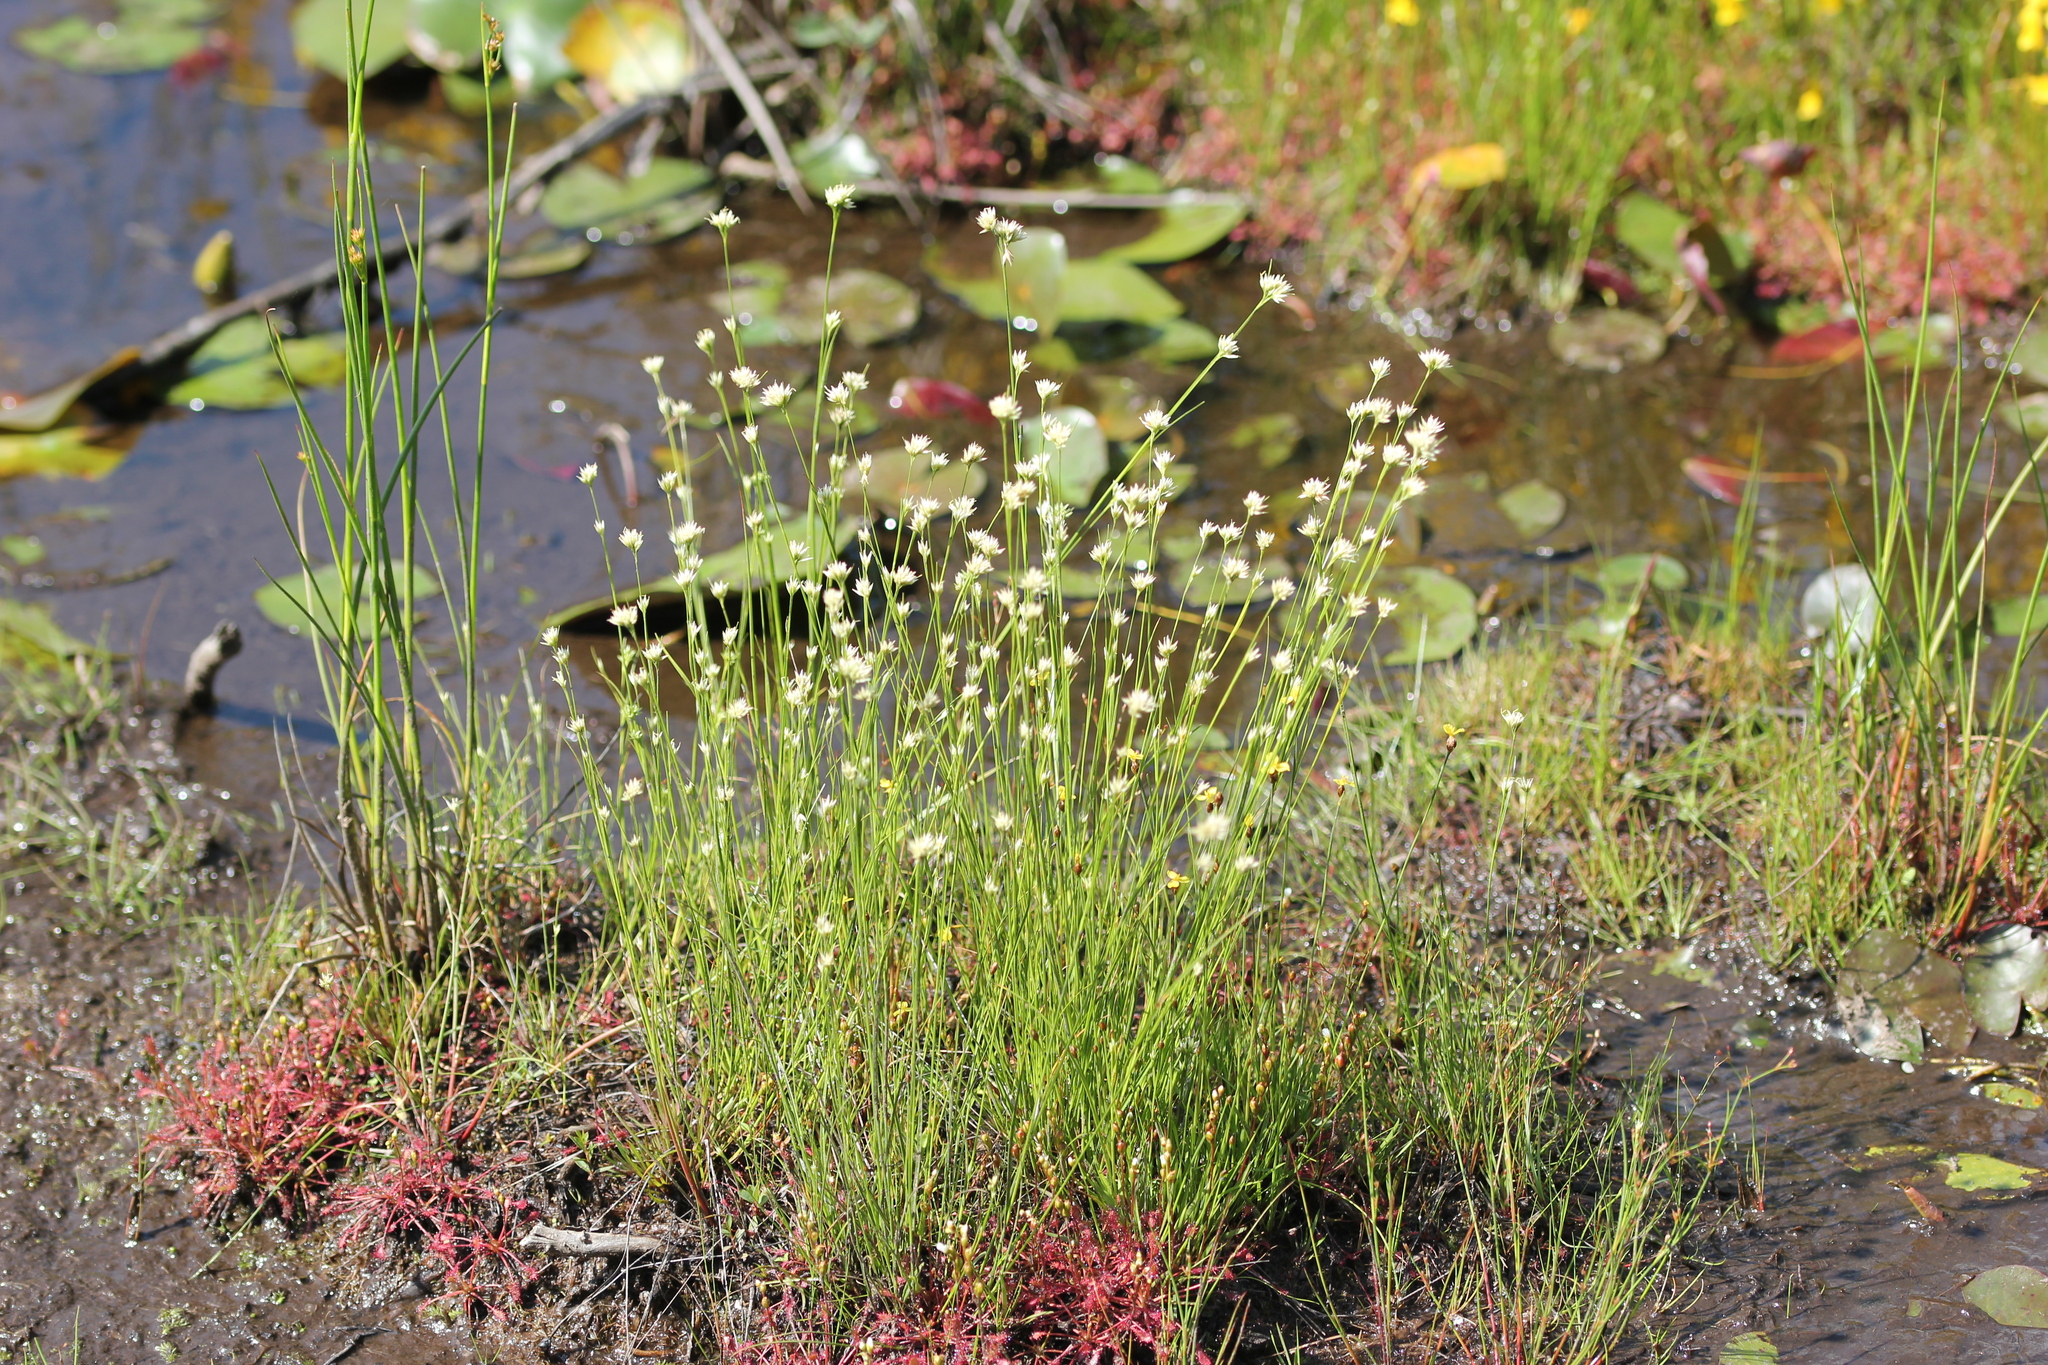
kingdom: Plantae
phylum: Tracheophyta
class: Liliopsida
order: Poales
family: Cyperaceae
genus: Rhynchospora
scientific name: Rhynchospora alba
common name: White beak-sedge
